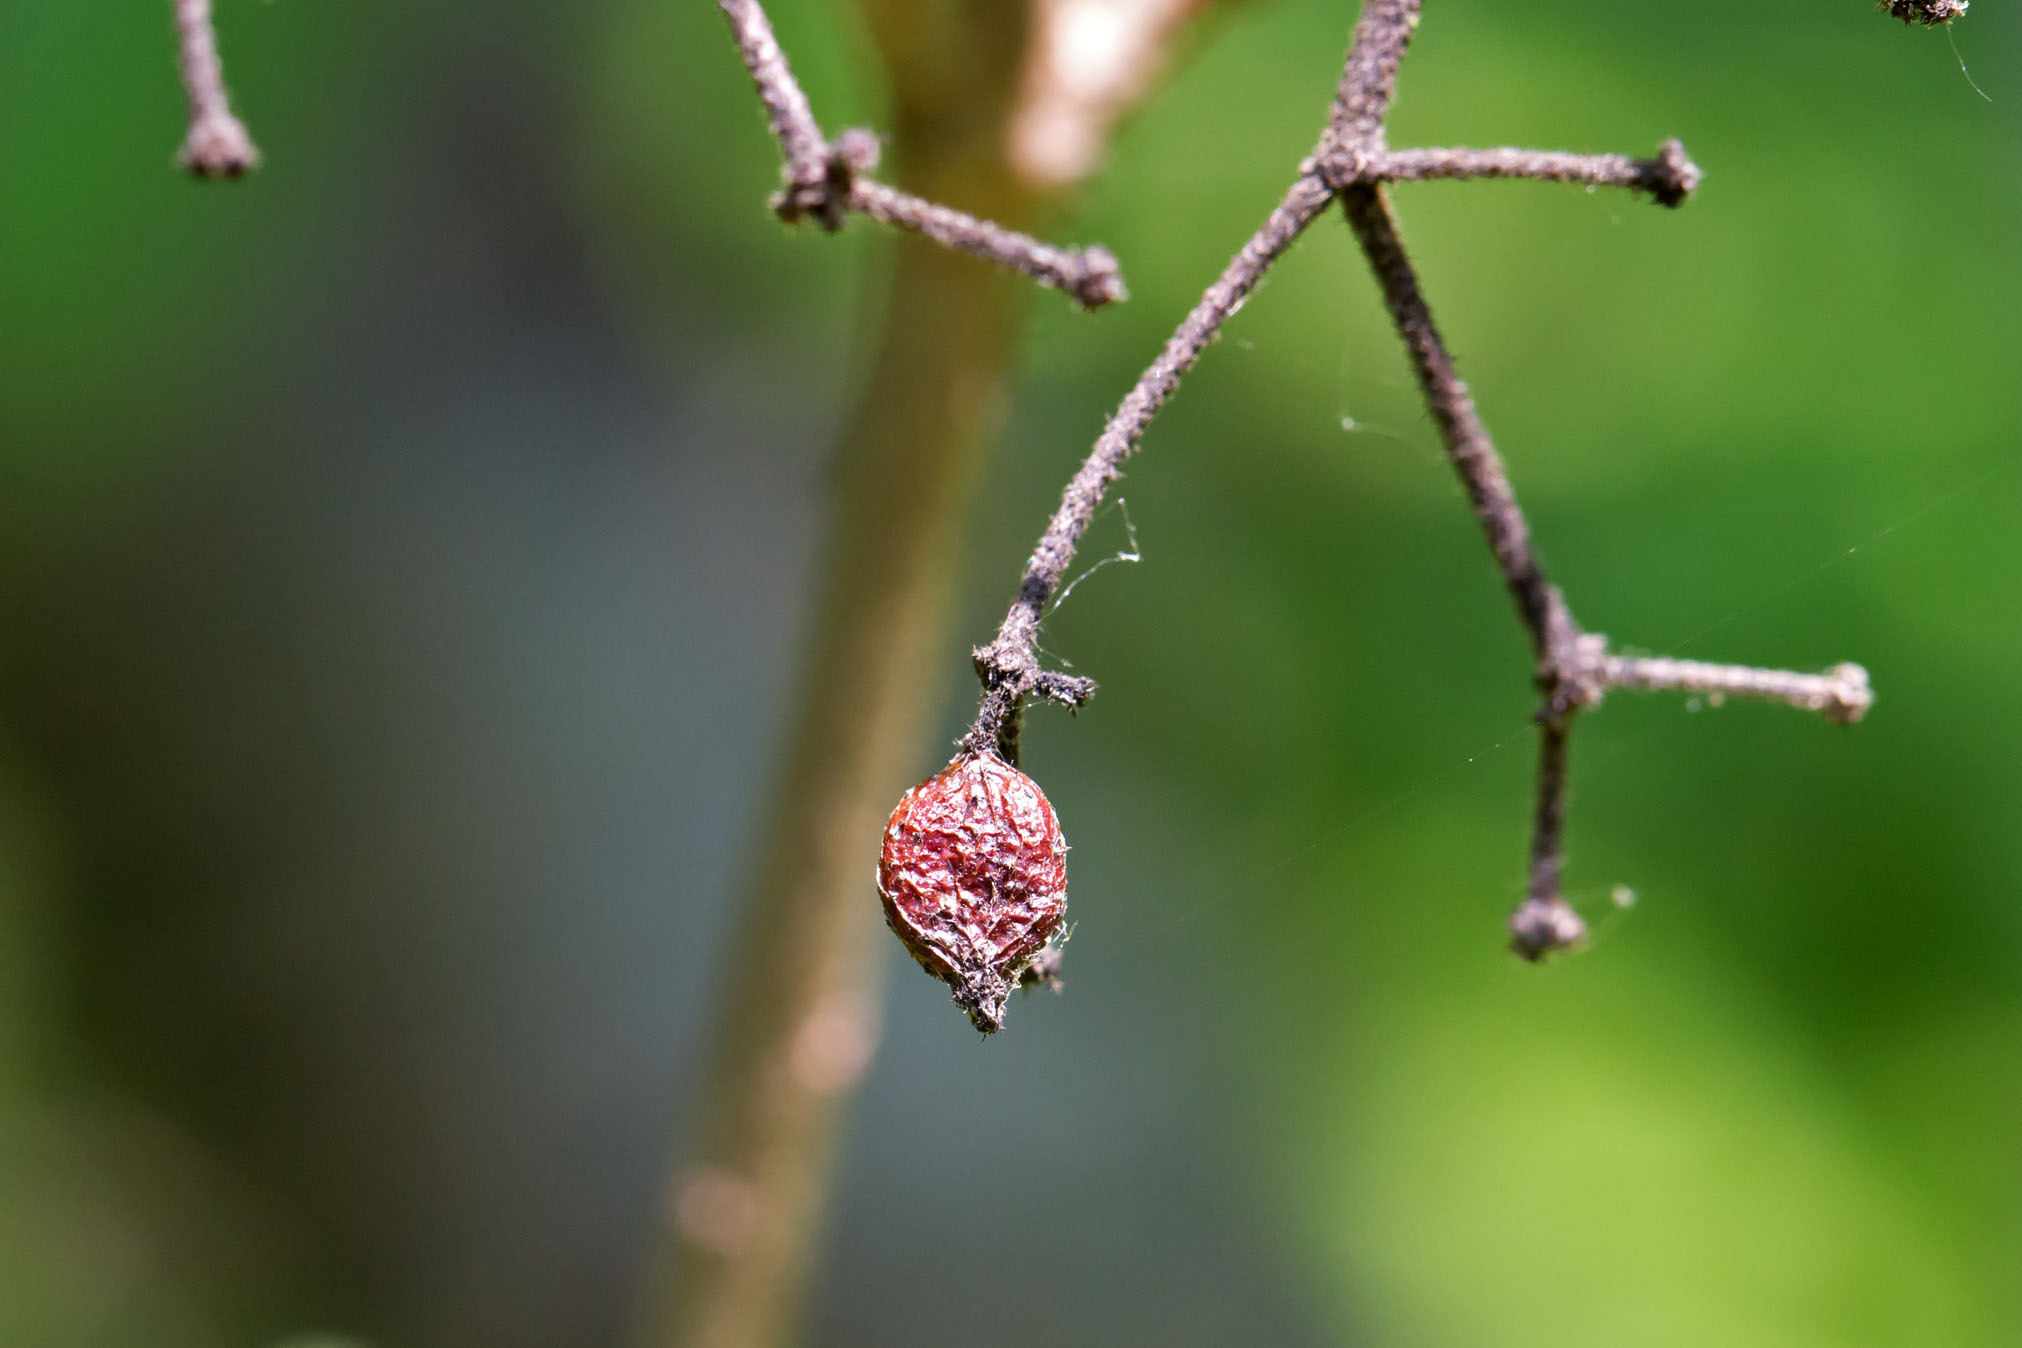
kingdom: Plantae
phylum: Tracheophyta
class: Magnoliopsida
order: Dipsacales
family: Viburnaceae
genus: Viburnum
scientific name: Viburnum dilatatum
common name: Linden arrowwood
